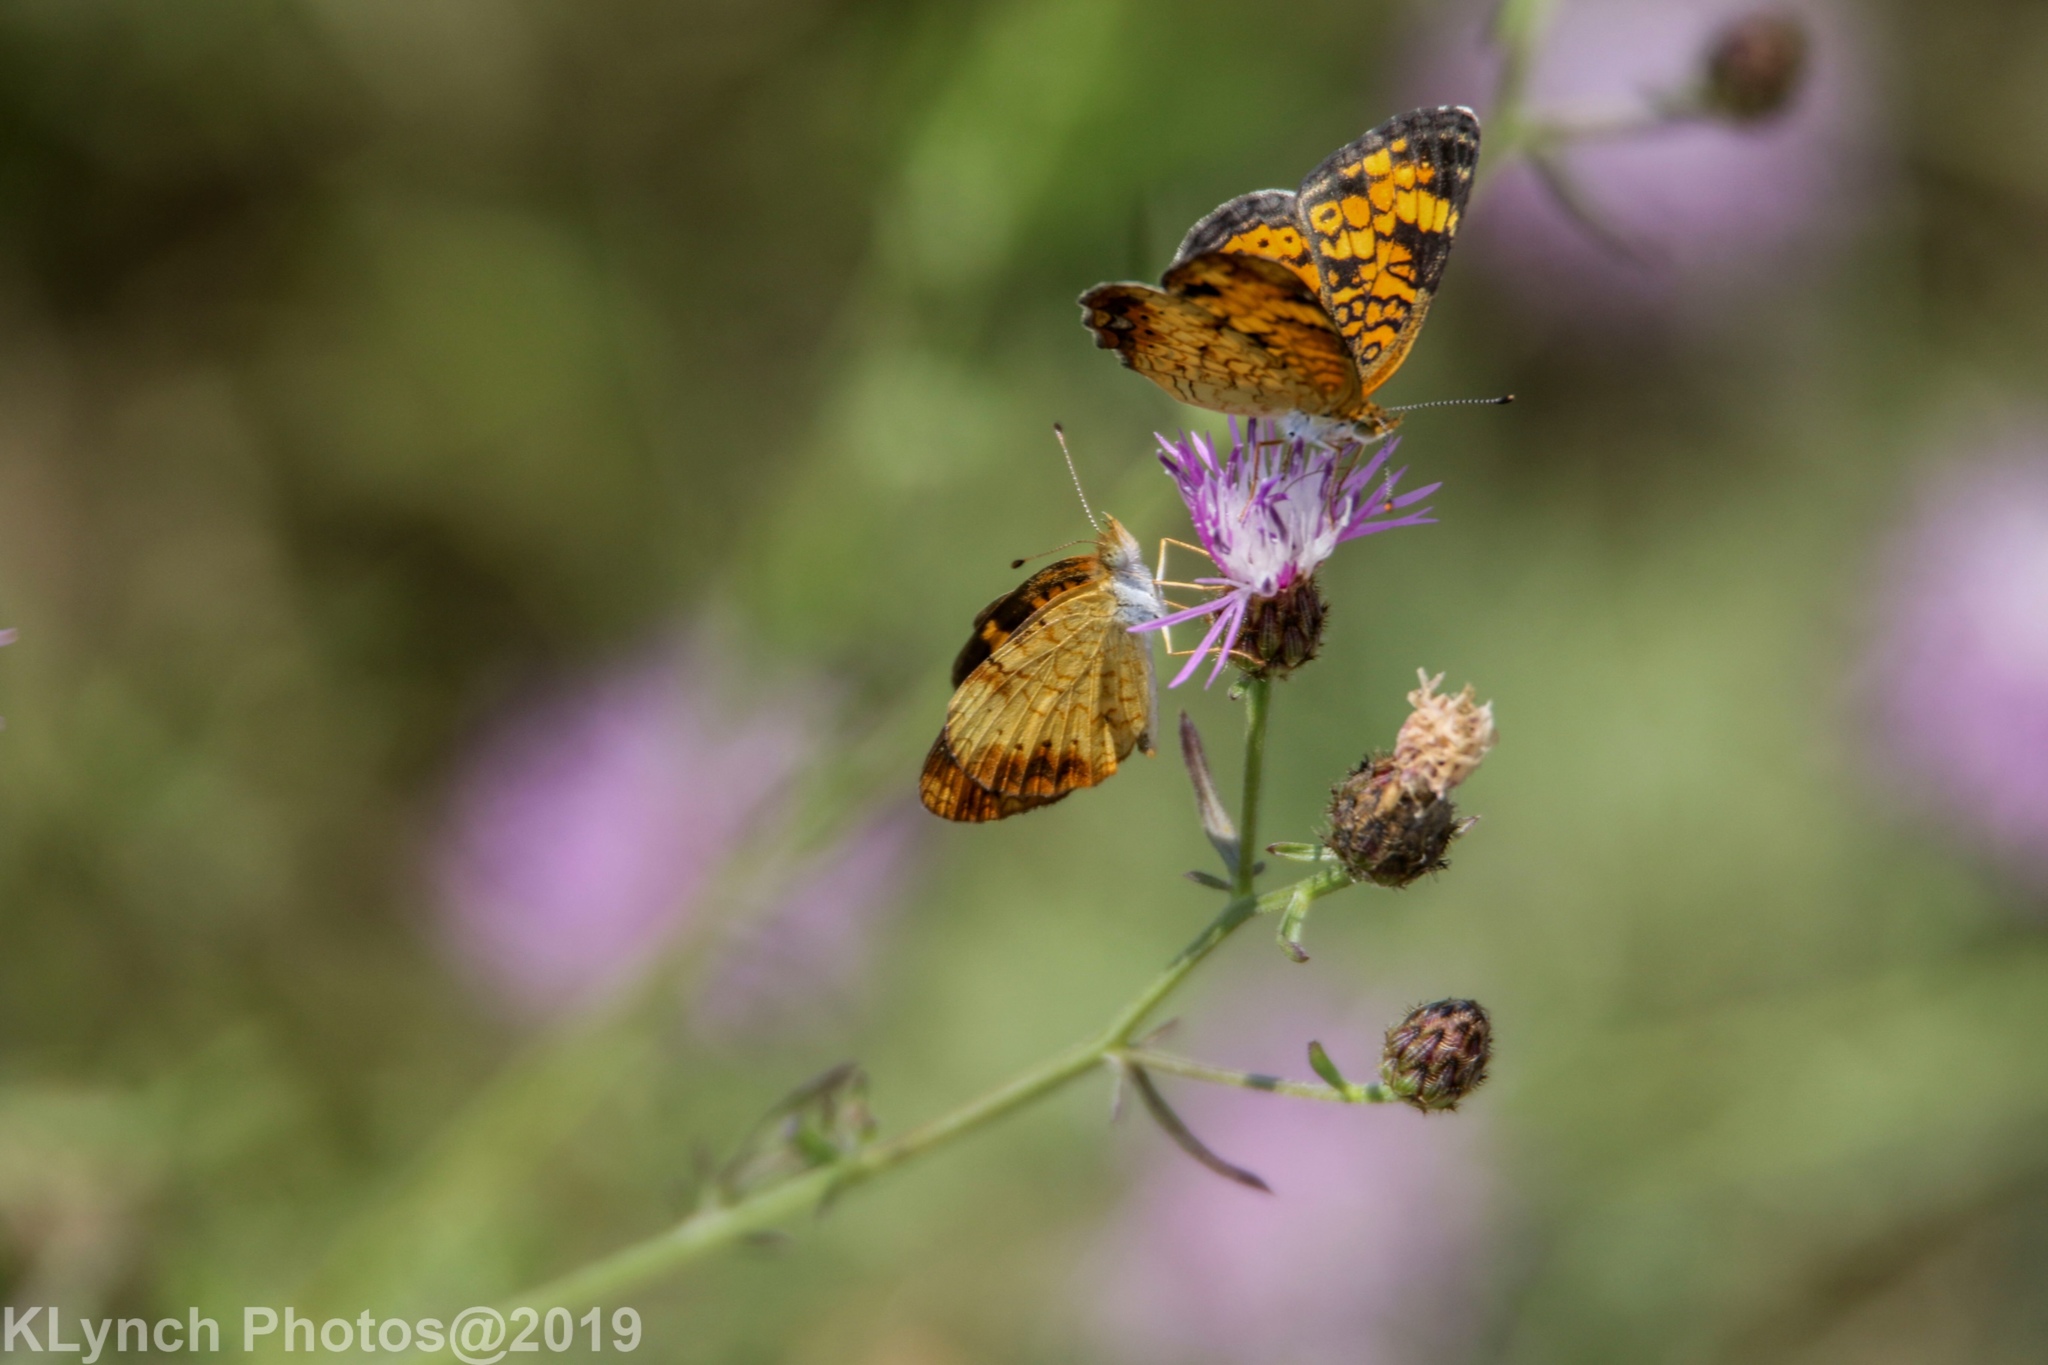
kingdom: Animalia
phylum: Arthropoda
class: Insecta
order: Lepidoptera
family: Nymphalidae
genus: Phyciodes
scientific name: Phyciodes tharos
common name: Pearl crescent
